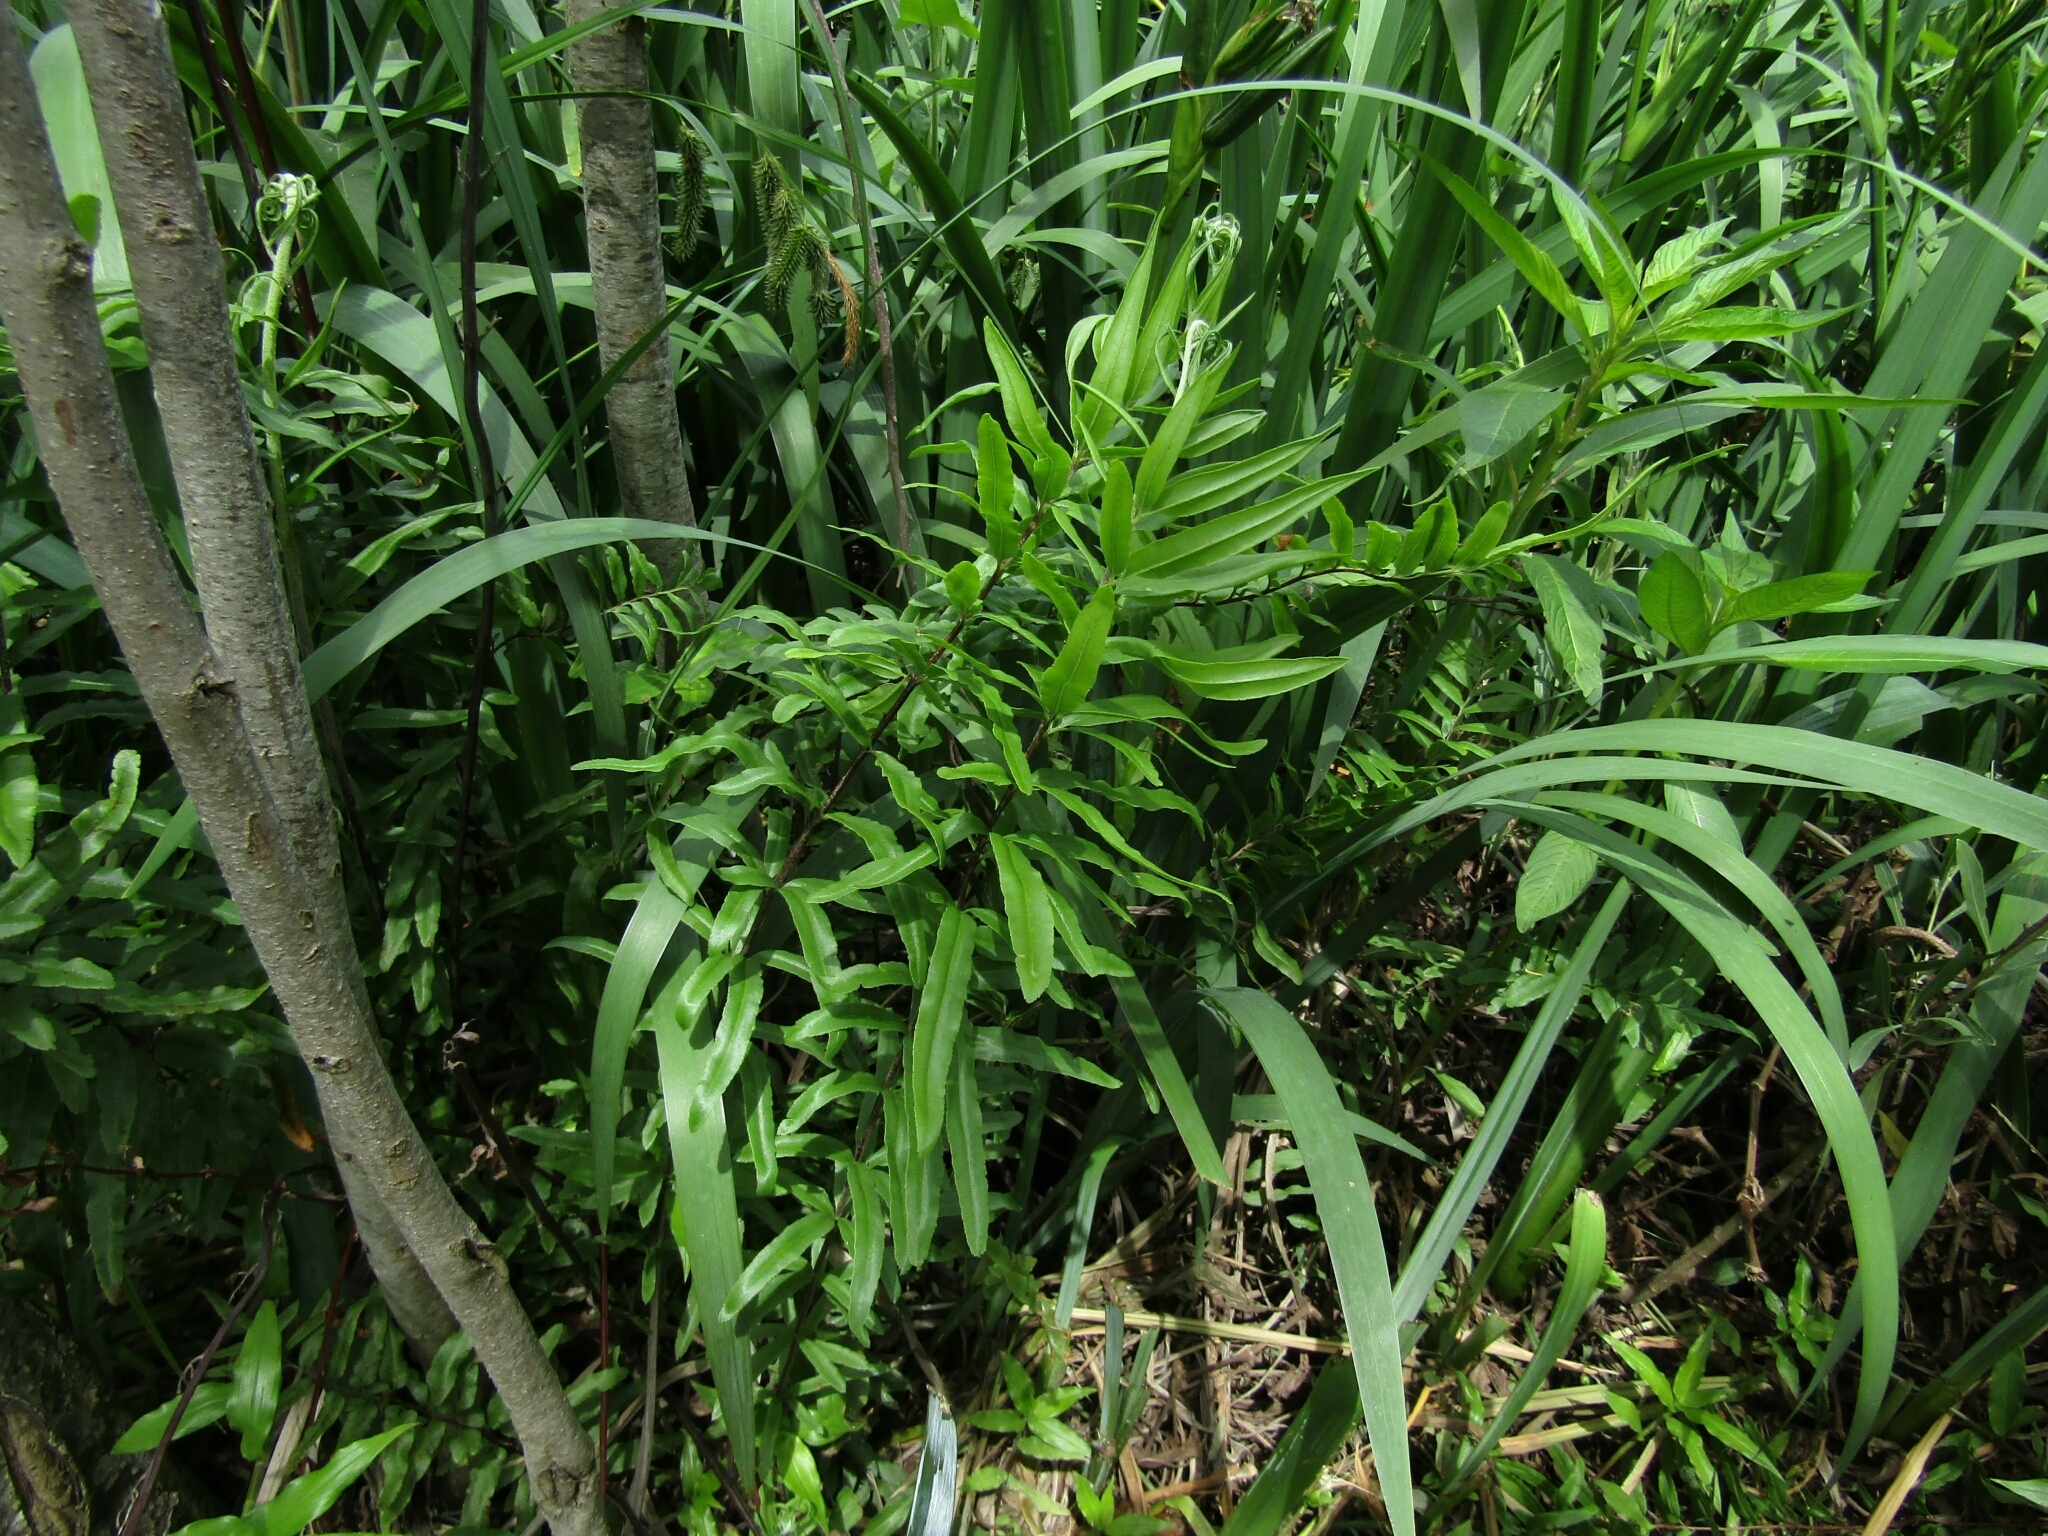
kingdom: Plantae
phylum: Tracheophyta
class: Polypodiopsida
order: Polypodiales
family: Pteridaceae
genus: Pityrogramma
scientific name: Pityrogramma trifoliata
